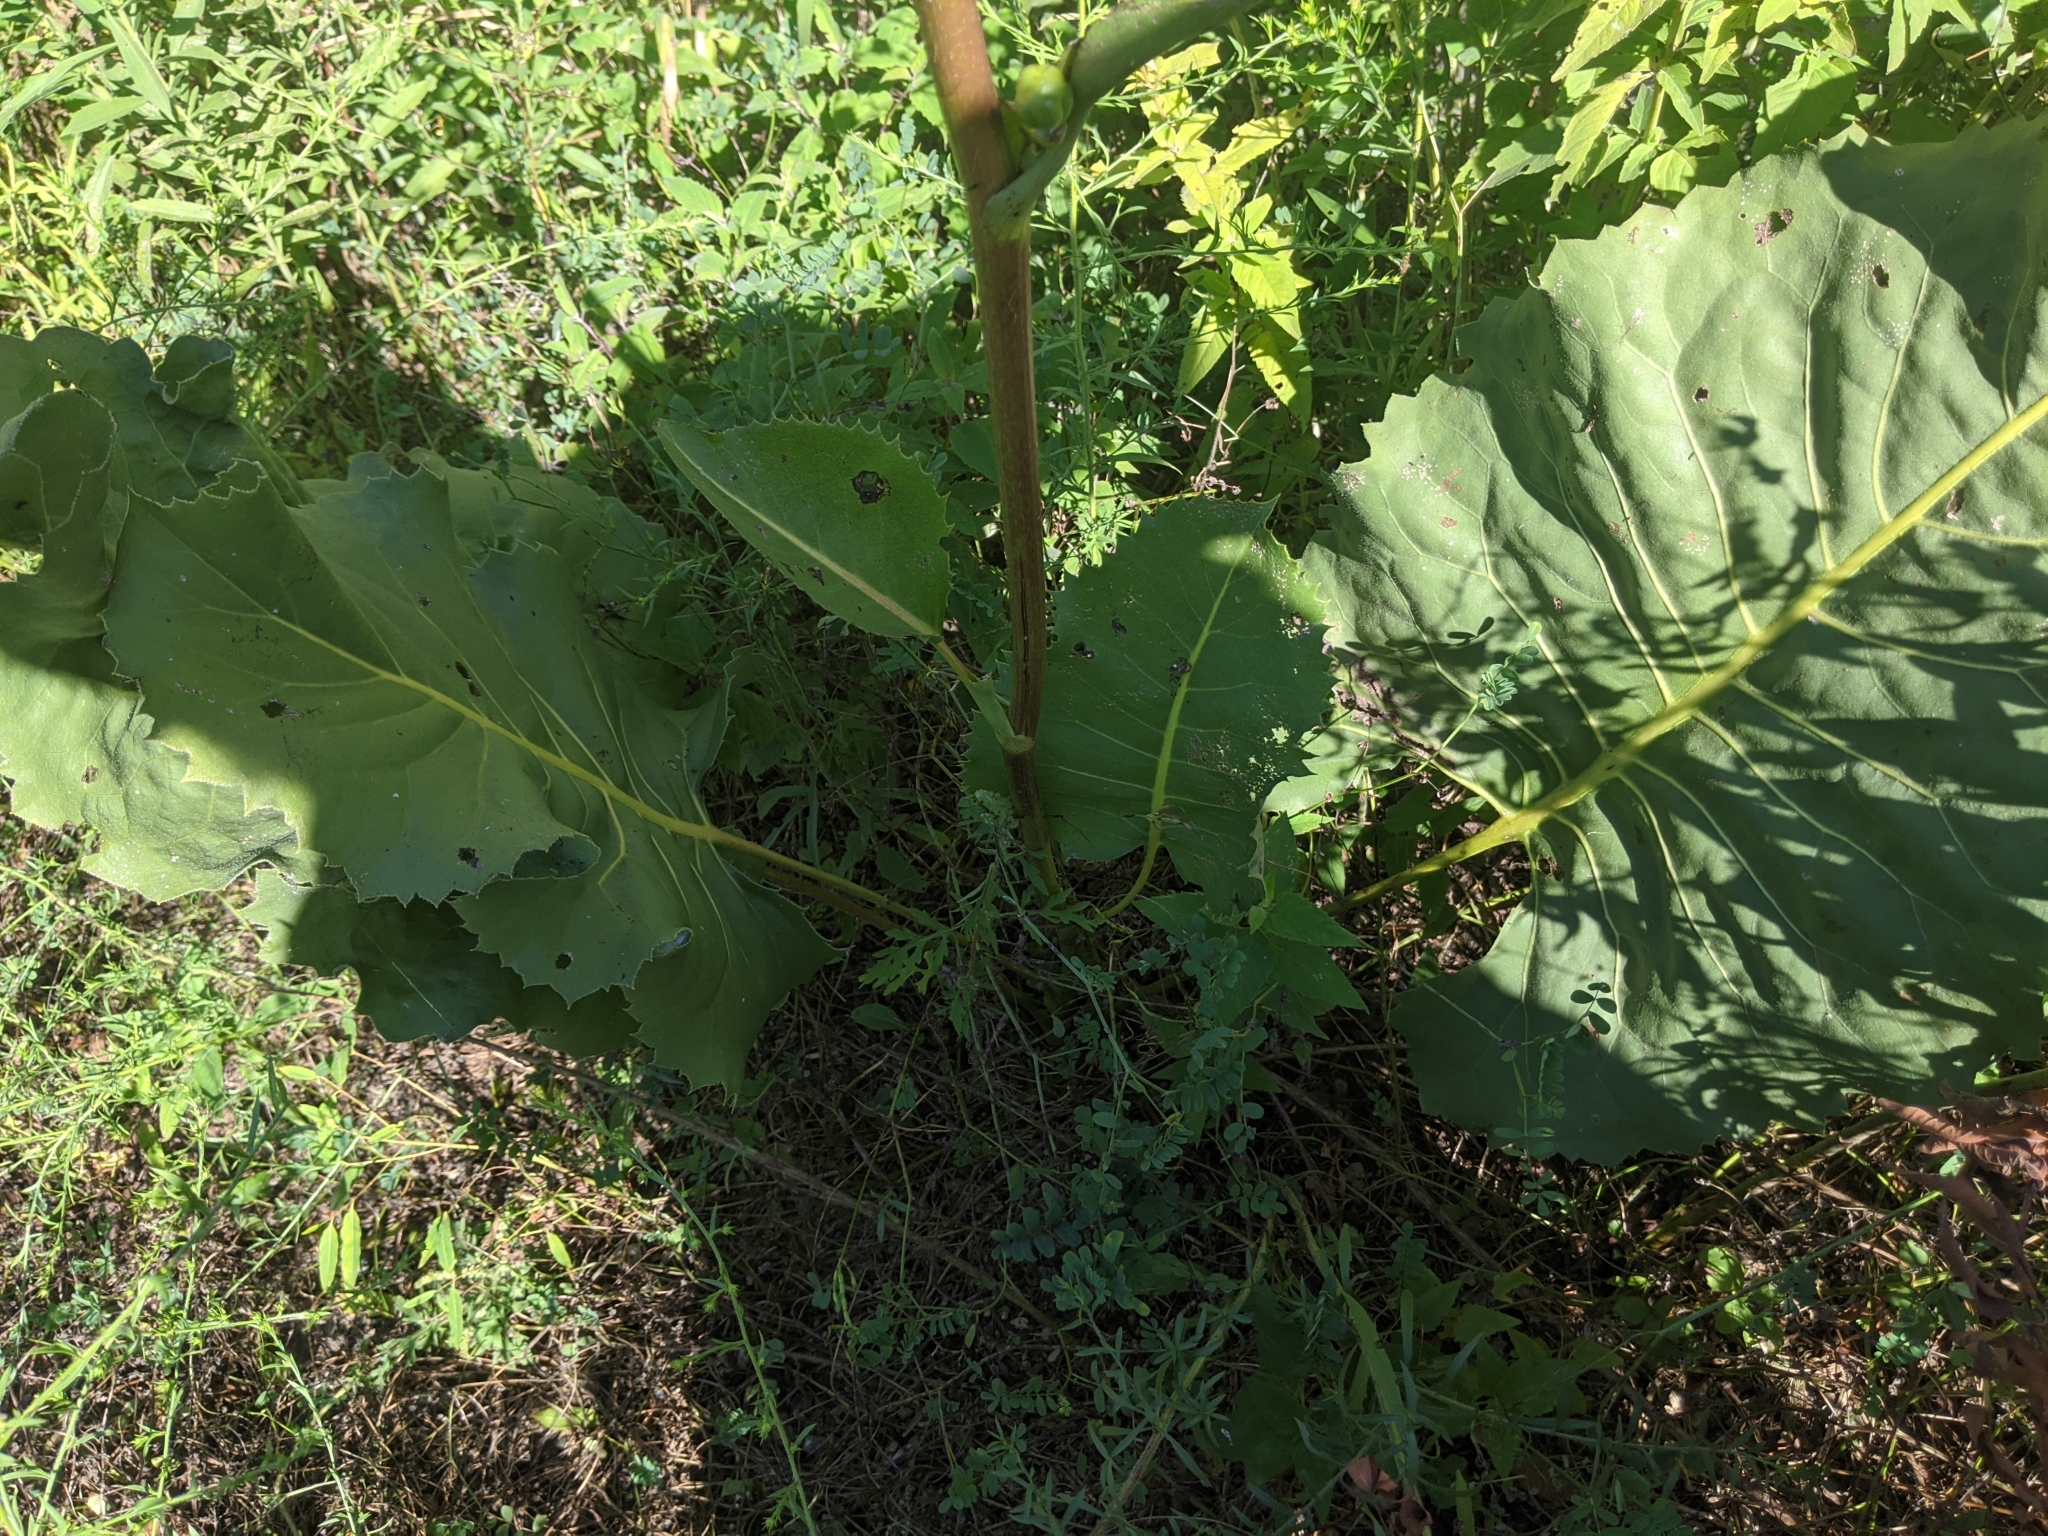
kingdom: Plantae
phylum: Tracheophyta
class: Magnoliopsida
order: Asterales
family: Asteraceae
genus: Silphium
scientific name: Silphium terebinthinaceum
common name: Basal-leaf rosinweed
